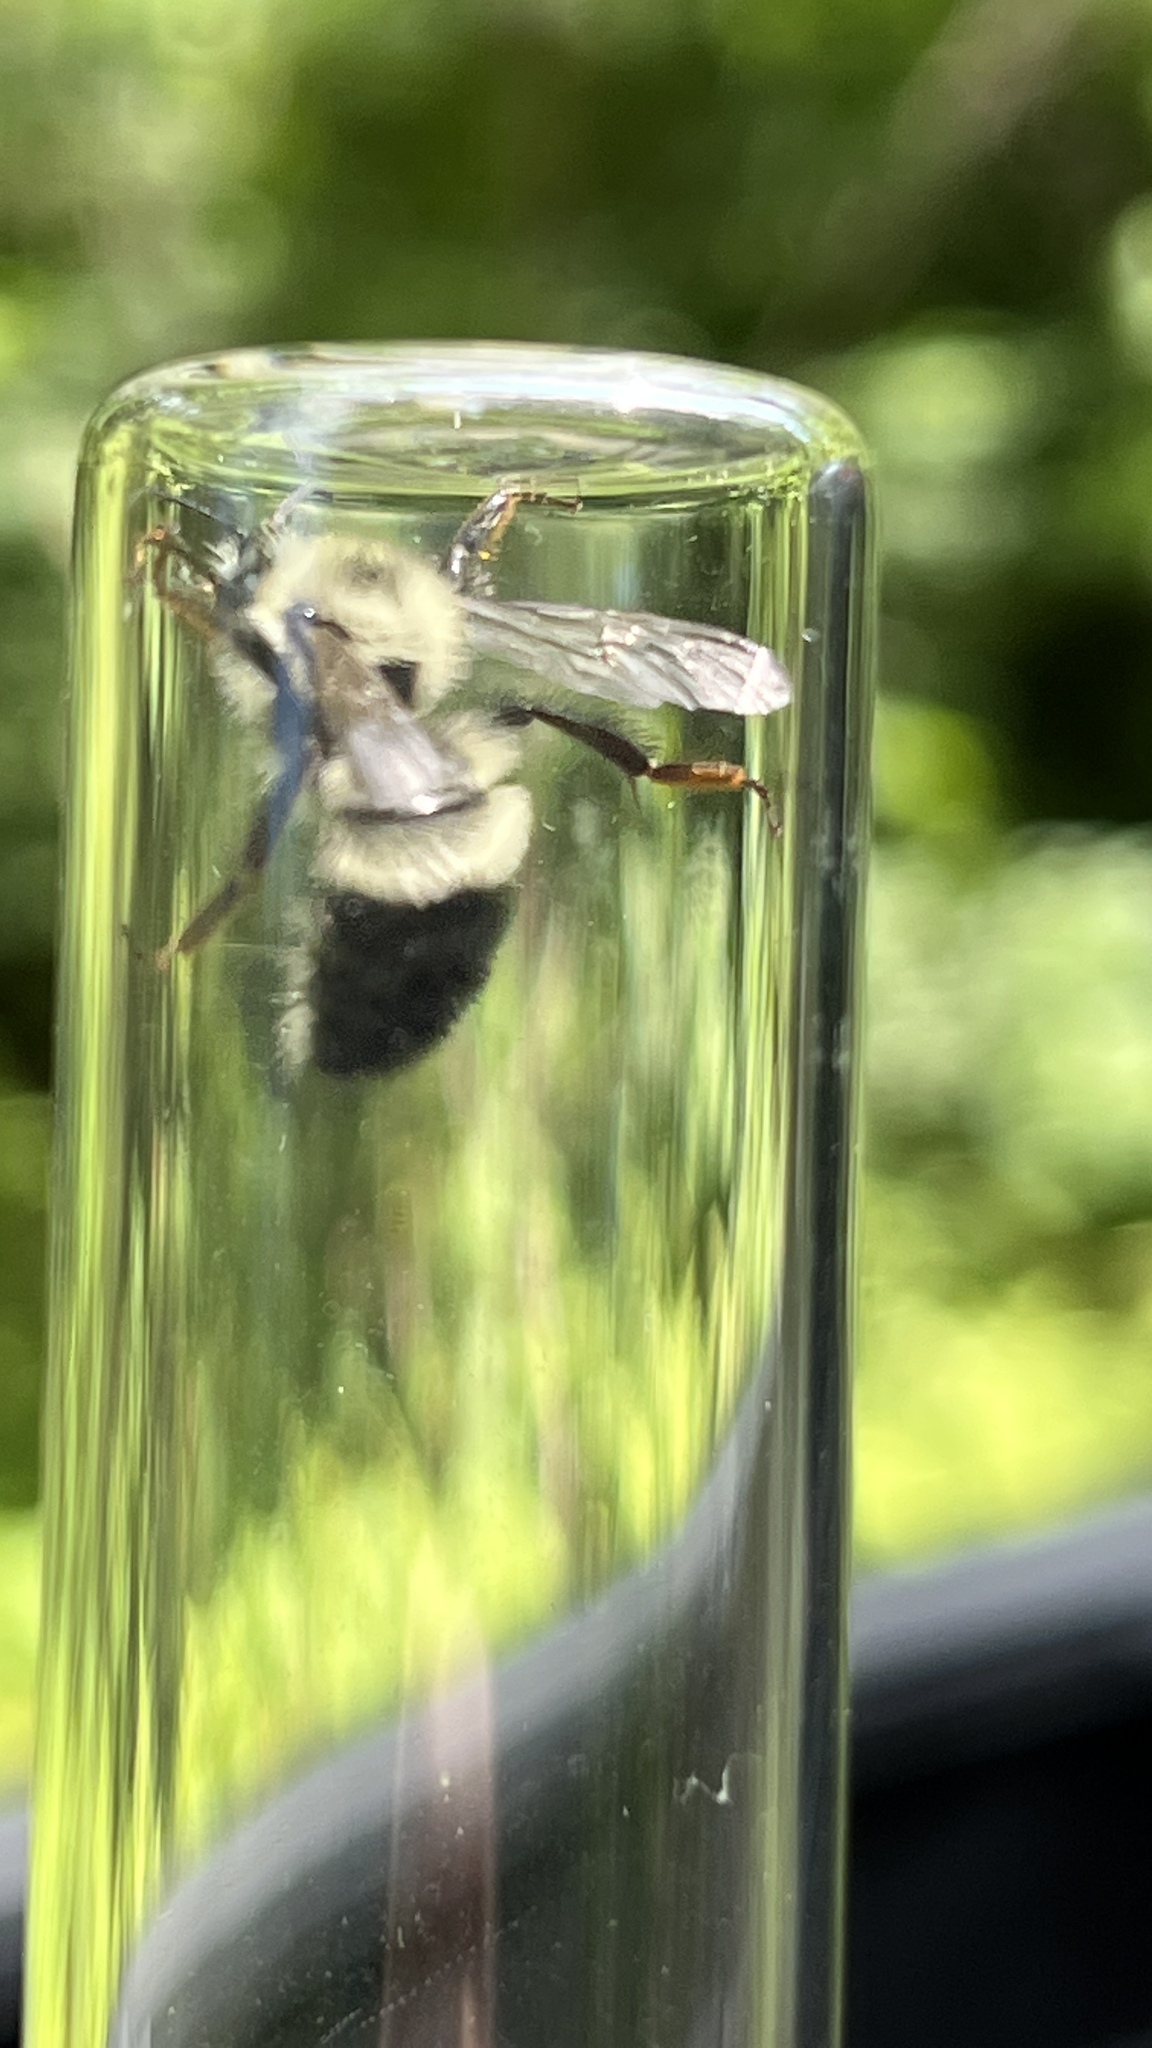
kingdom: Animalia
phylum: Arthropoda
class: Insecta
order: Hymenoptera
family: Apidae
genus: Pyrobombus
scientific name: Pyrobombus
